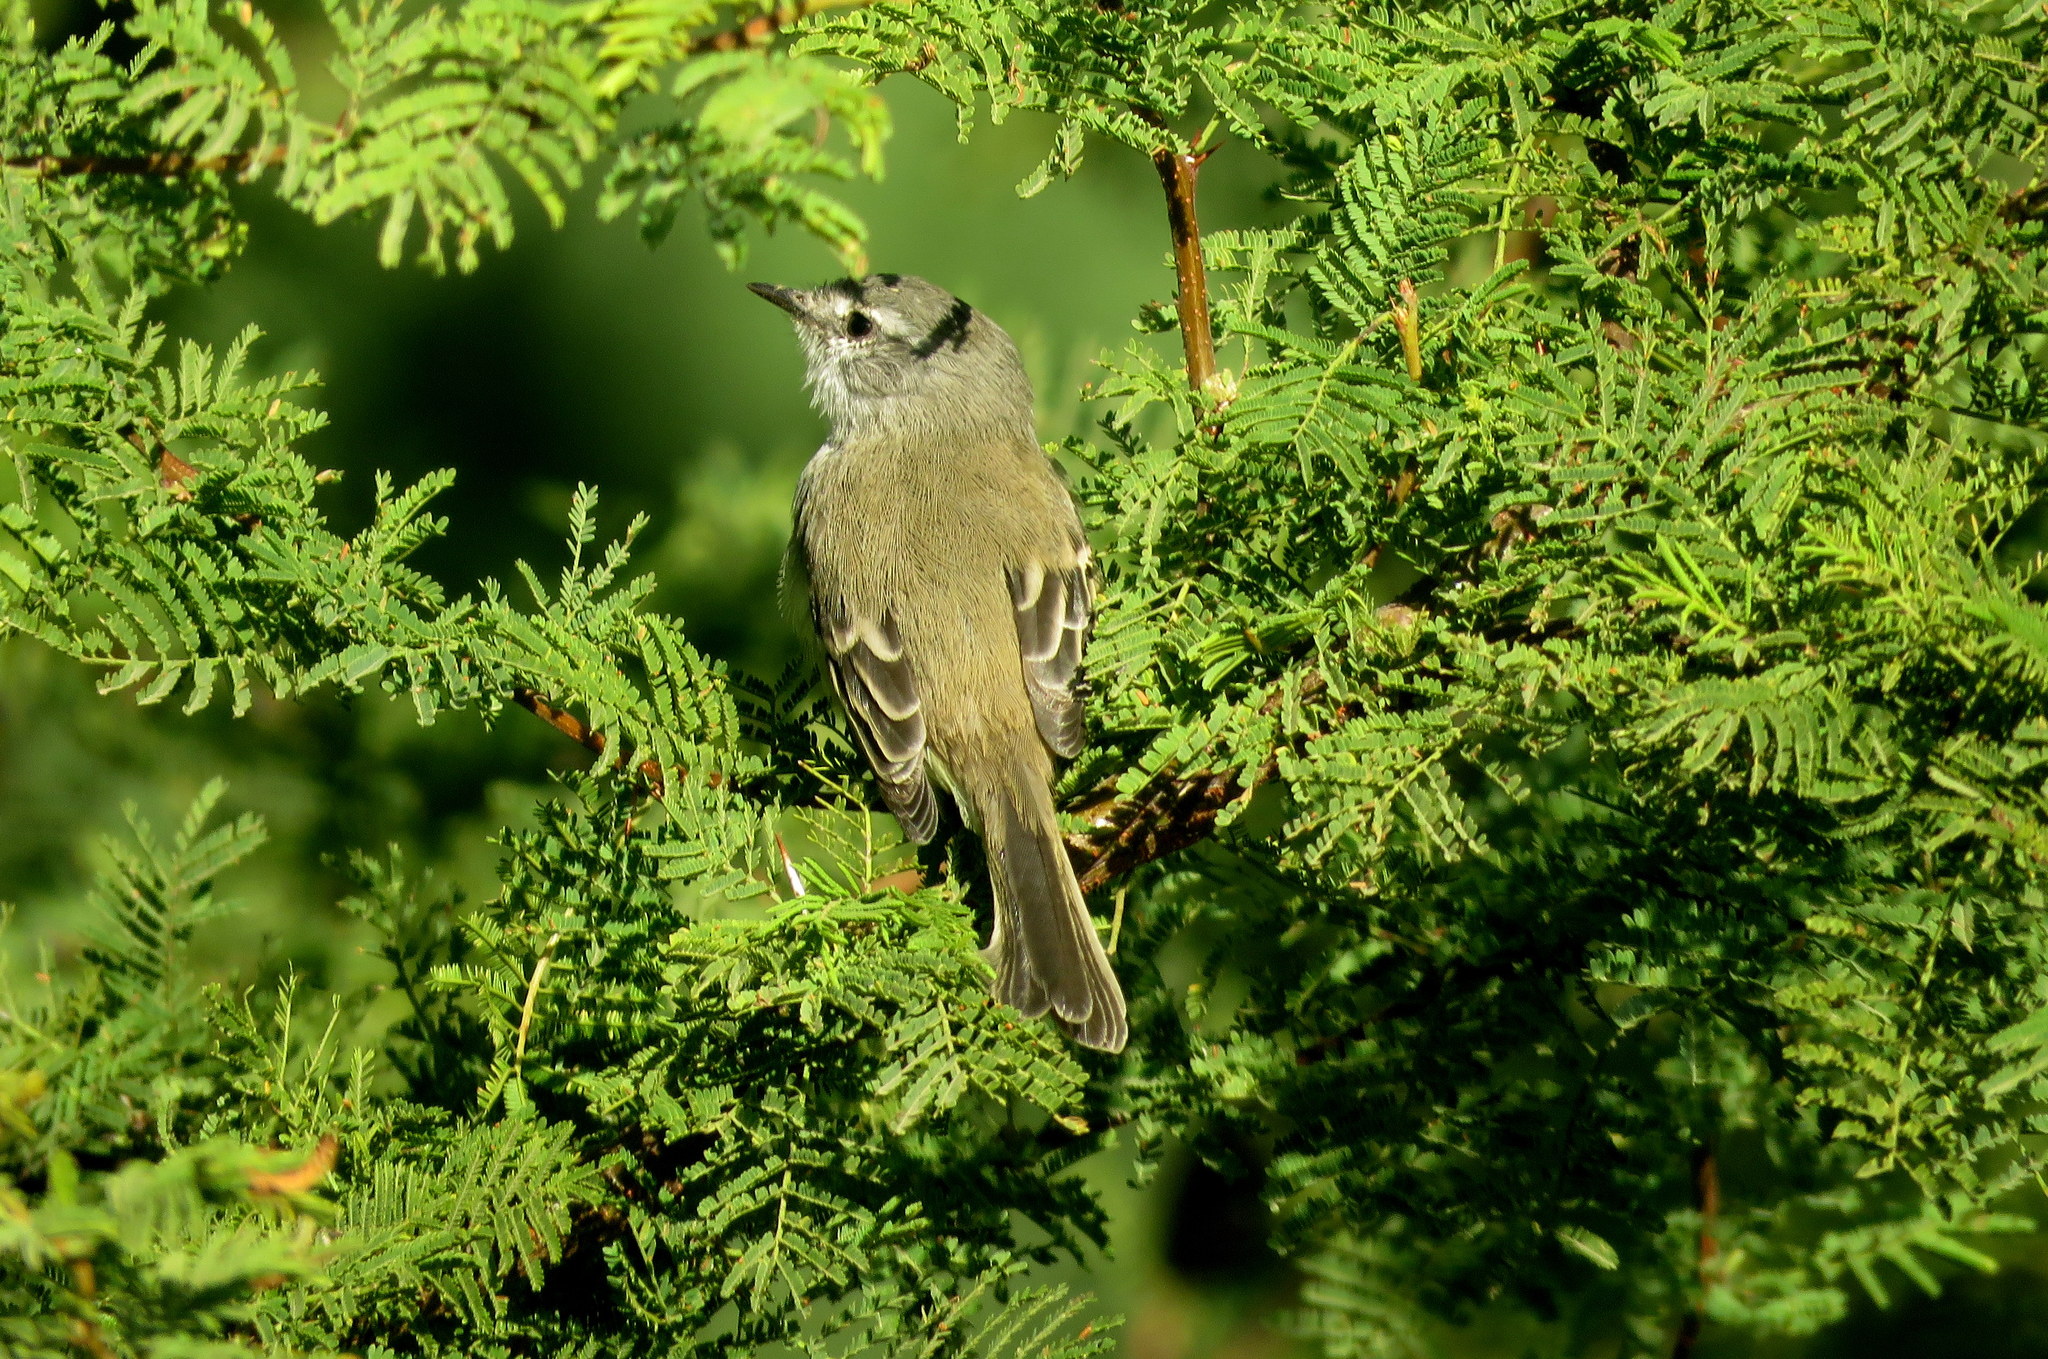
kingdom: Animalia
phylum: Chordata
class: Aves
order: Passeriformes
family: Tyrannidae
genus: Serpophaga
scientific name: Serpophaga subcristata
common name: White-crested tyrannulet
